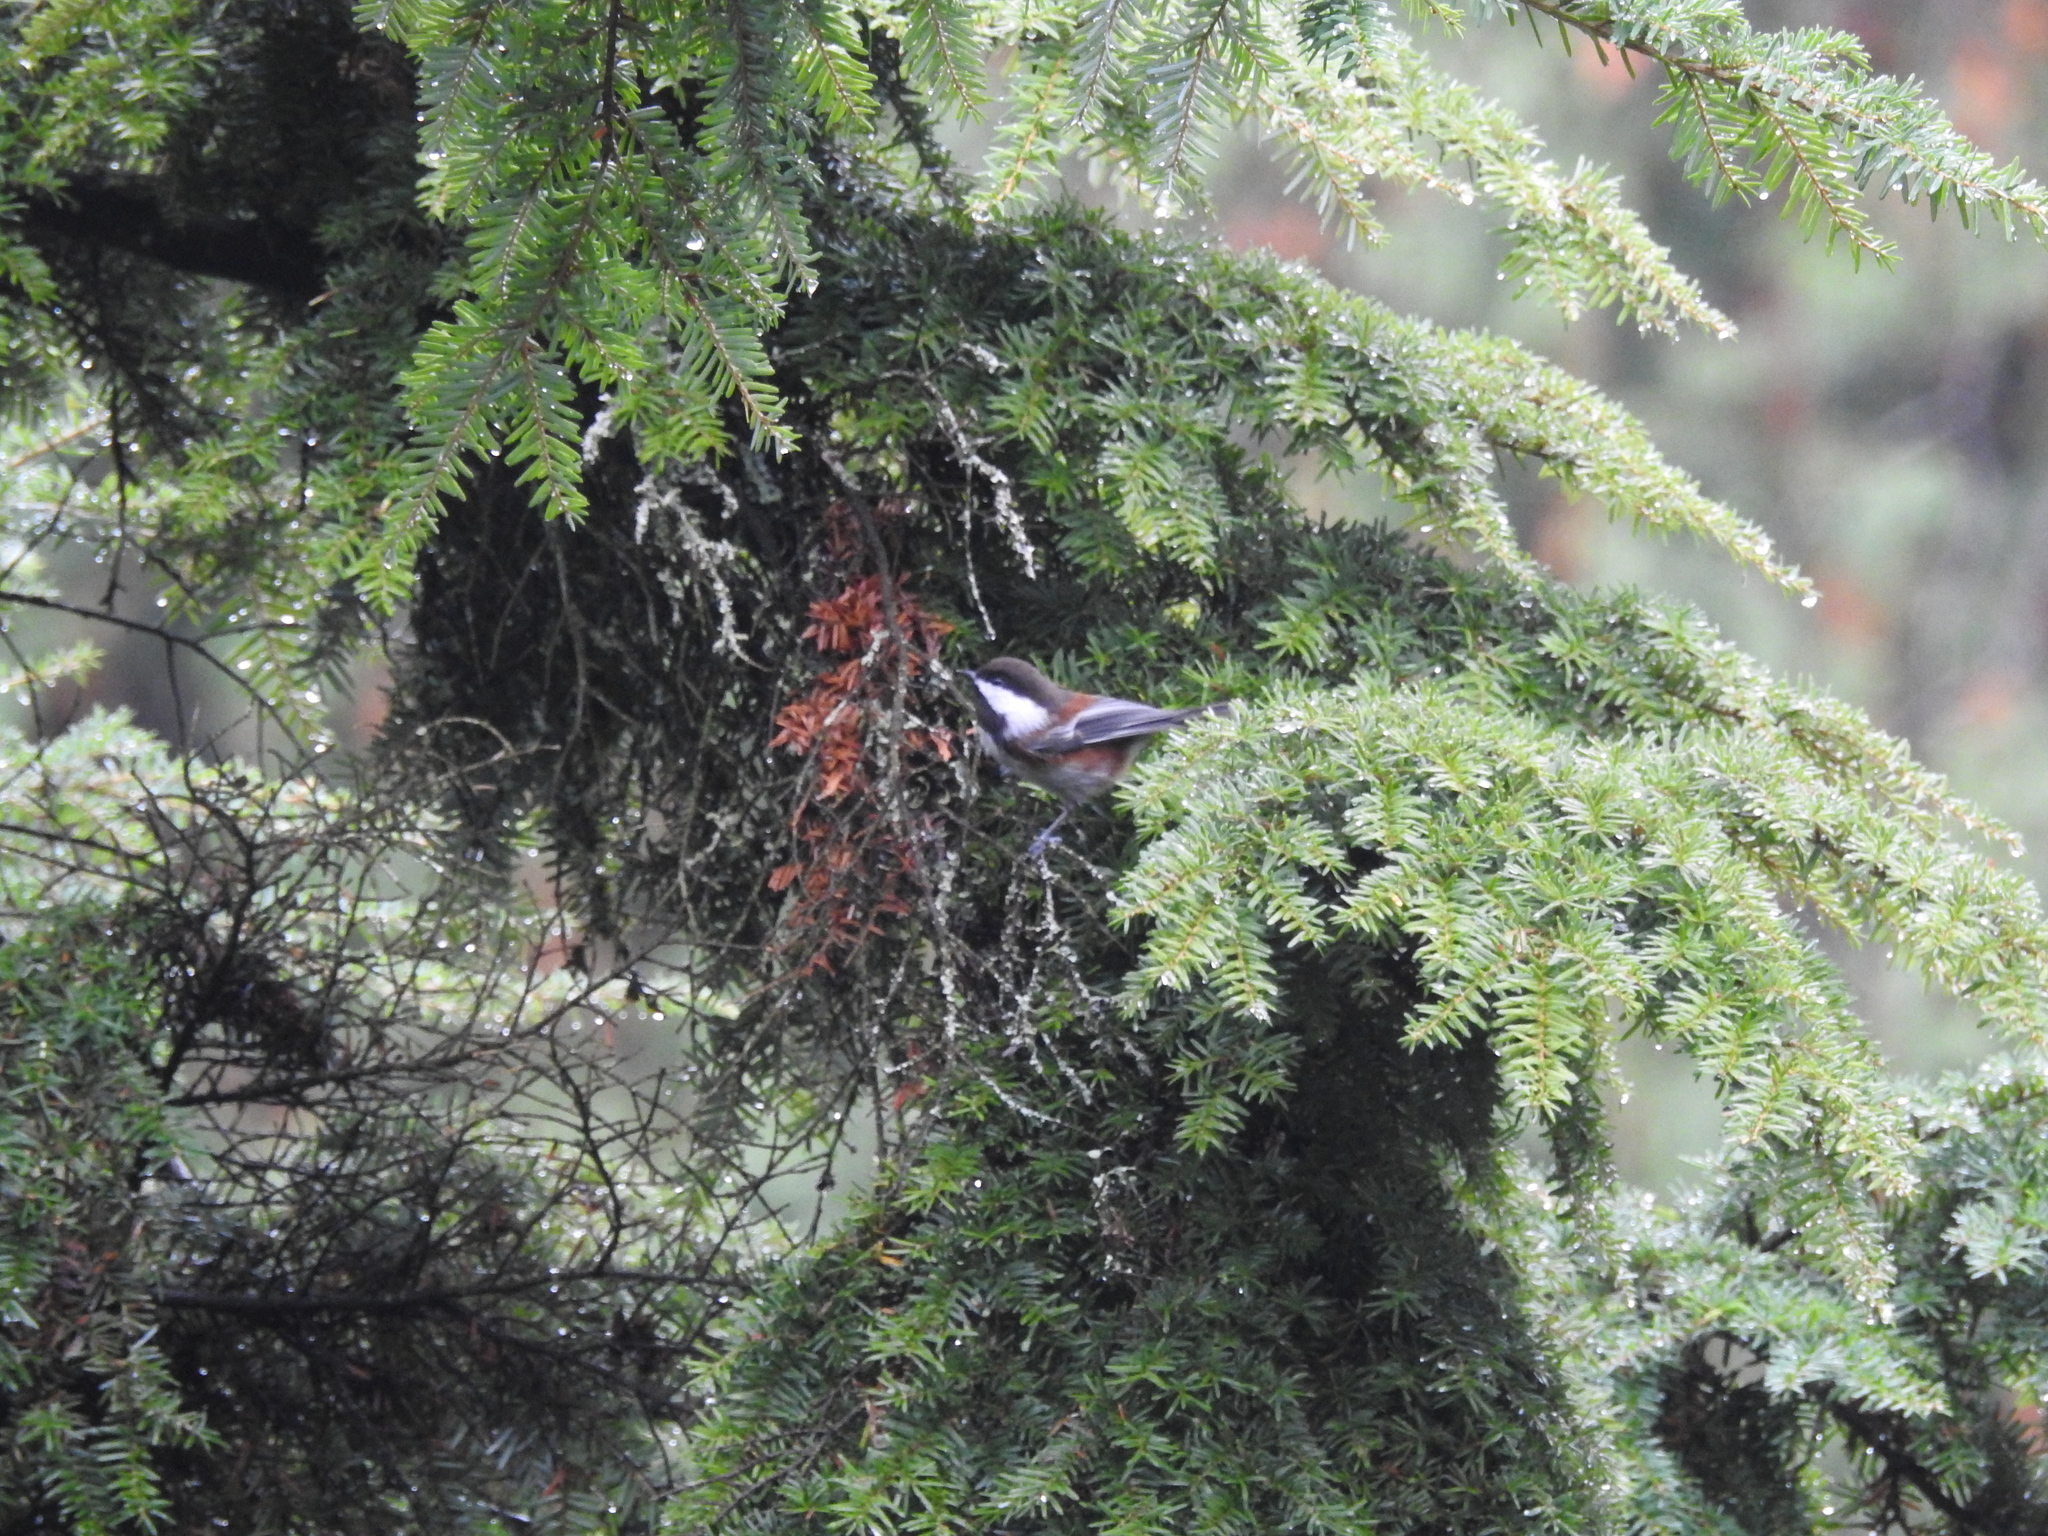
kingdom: Animalia
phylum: Chordata
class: Aves
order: Passeriformes
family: Paridae
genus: Poecile
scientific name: Poecile rufescens
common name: Chestnut-backed chickadee
